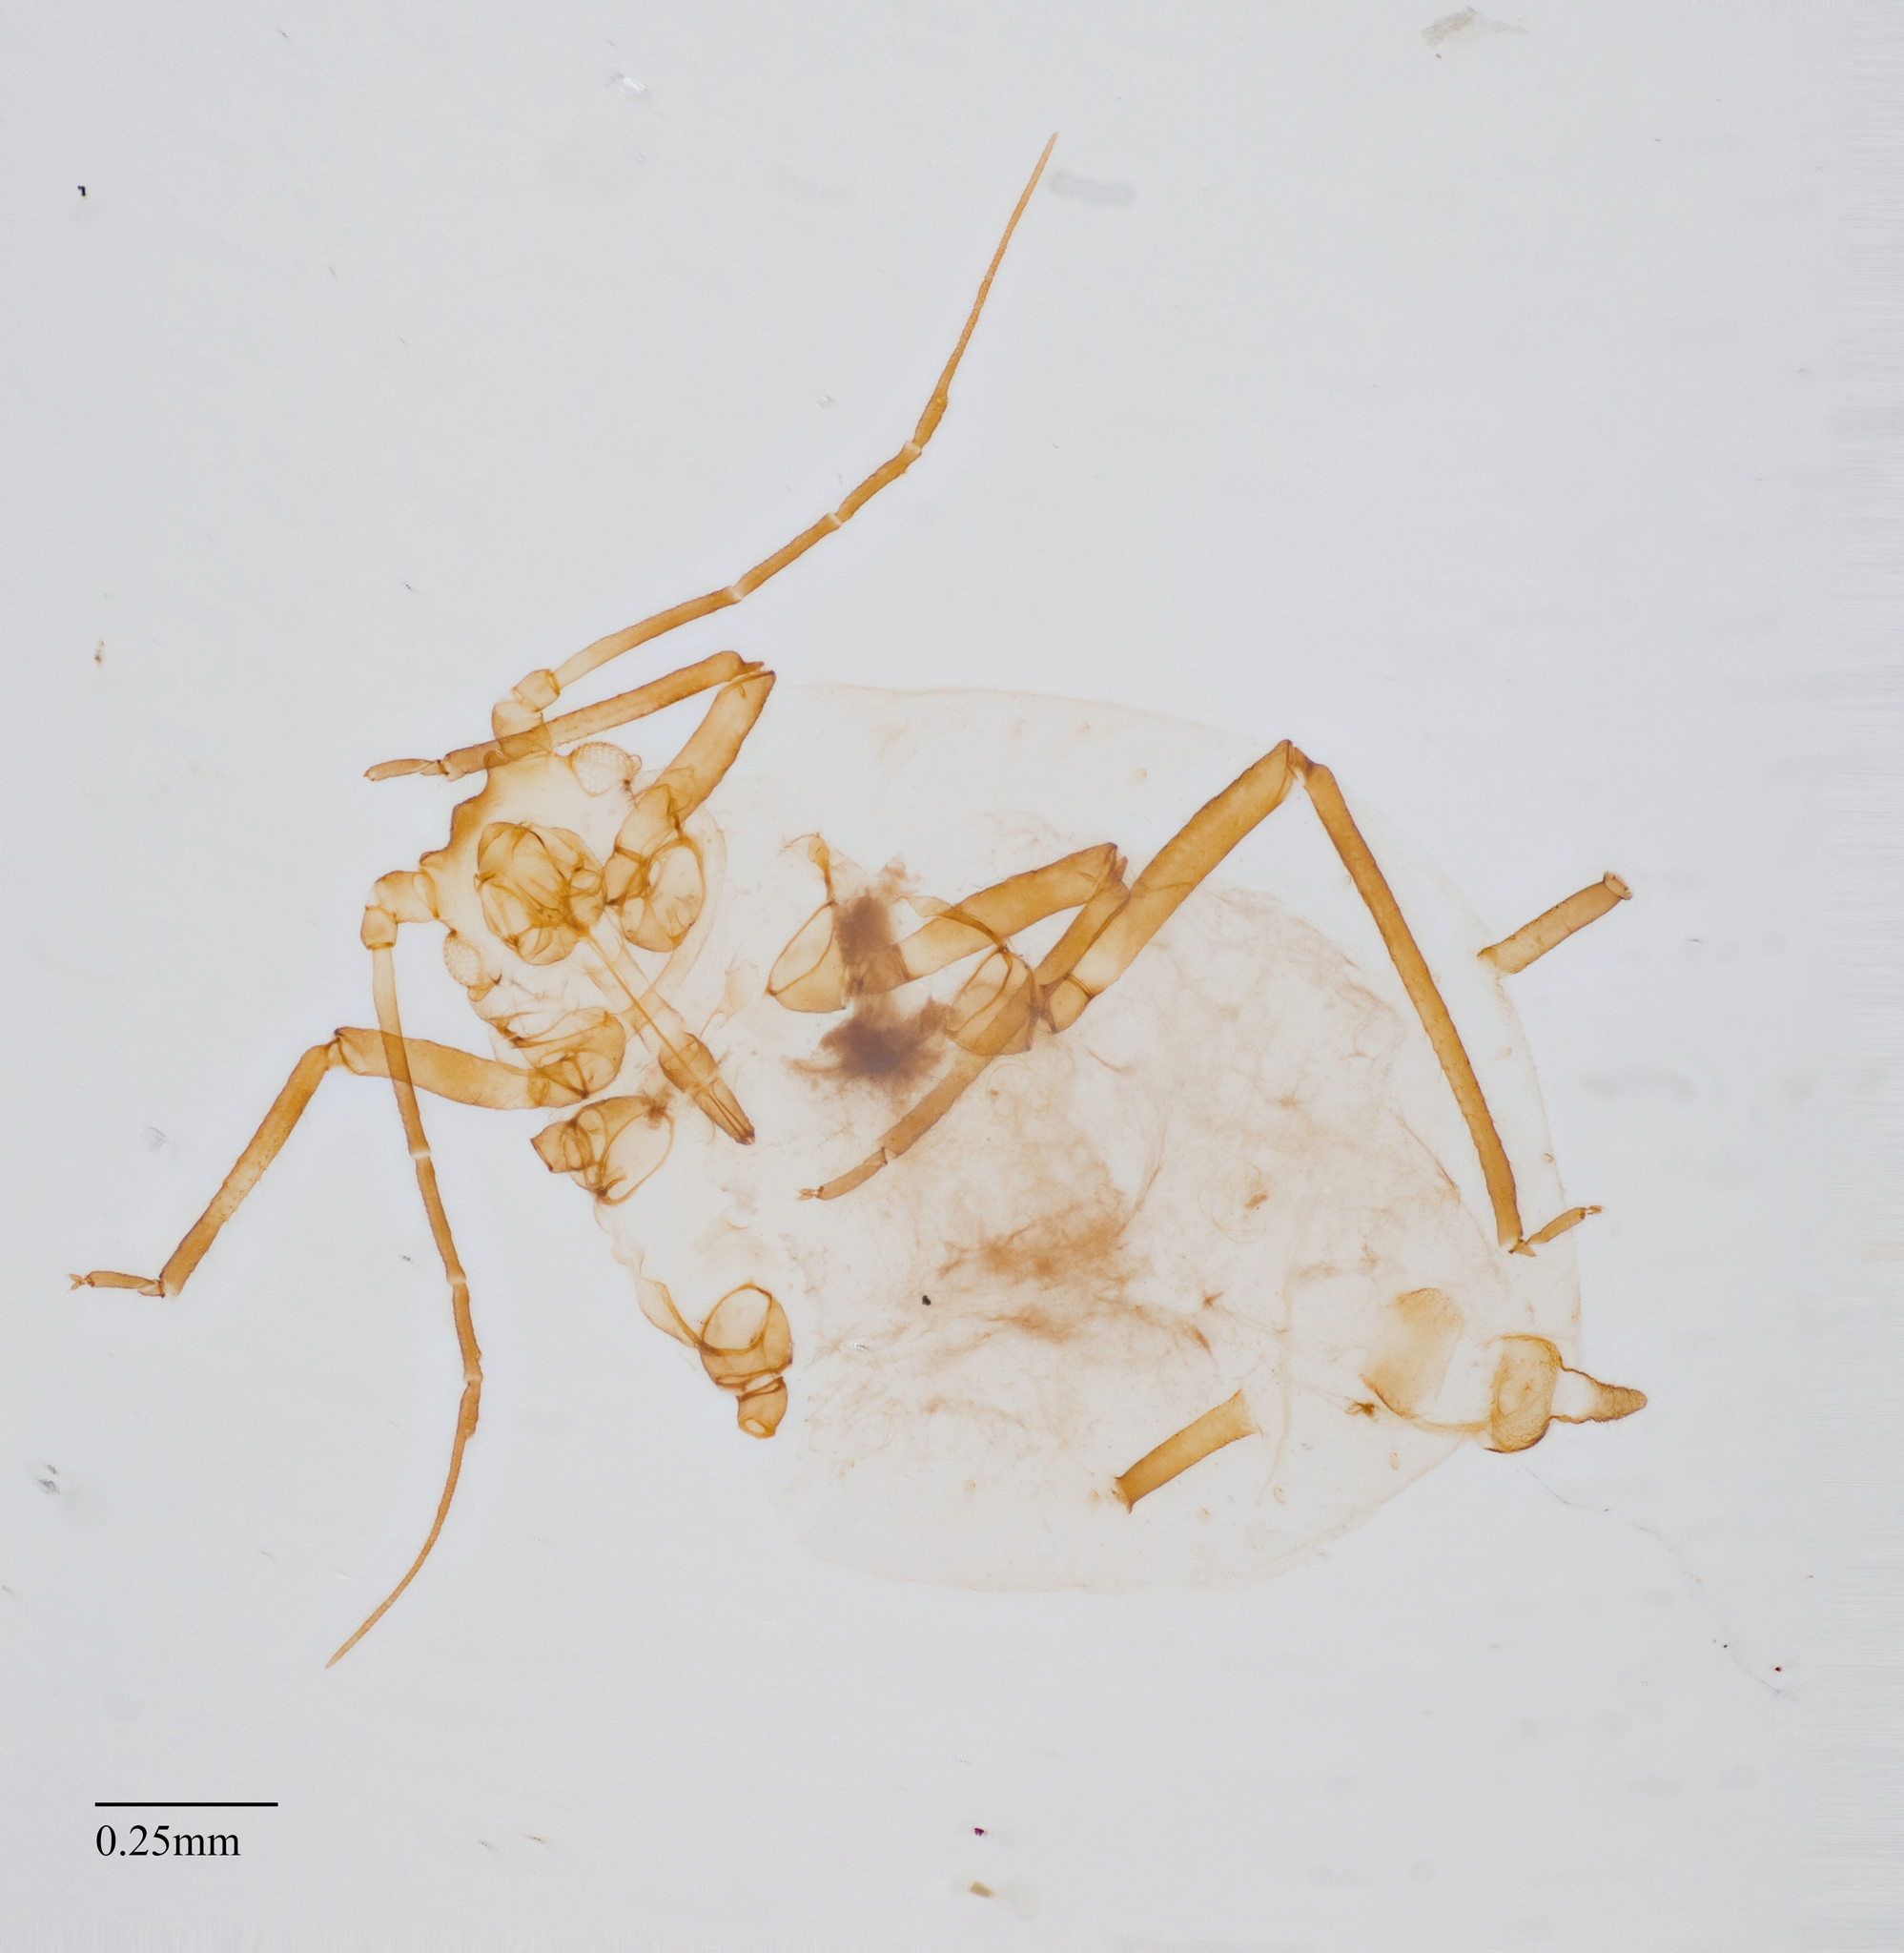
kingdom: Animalia
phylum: Arthropoda
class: Insecta
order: Hemiptera
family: Aphididae
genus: Rhopalosiphum
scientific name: Rhopalosiphum padi
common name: Oat-birdcherry aphid
